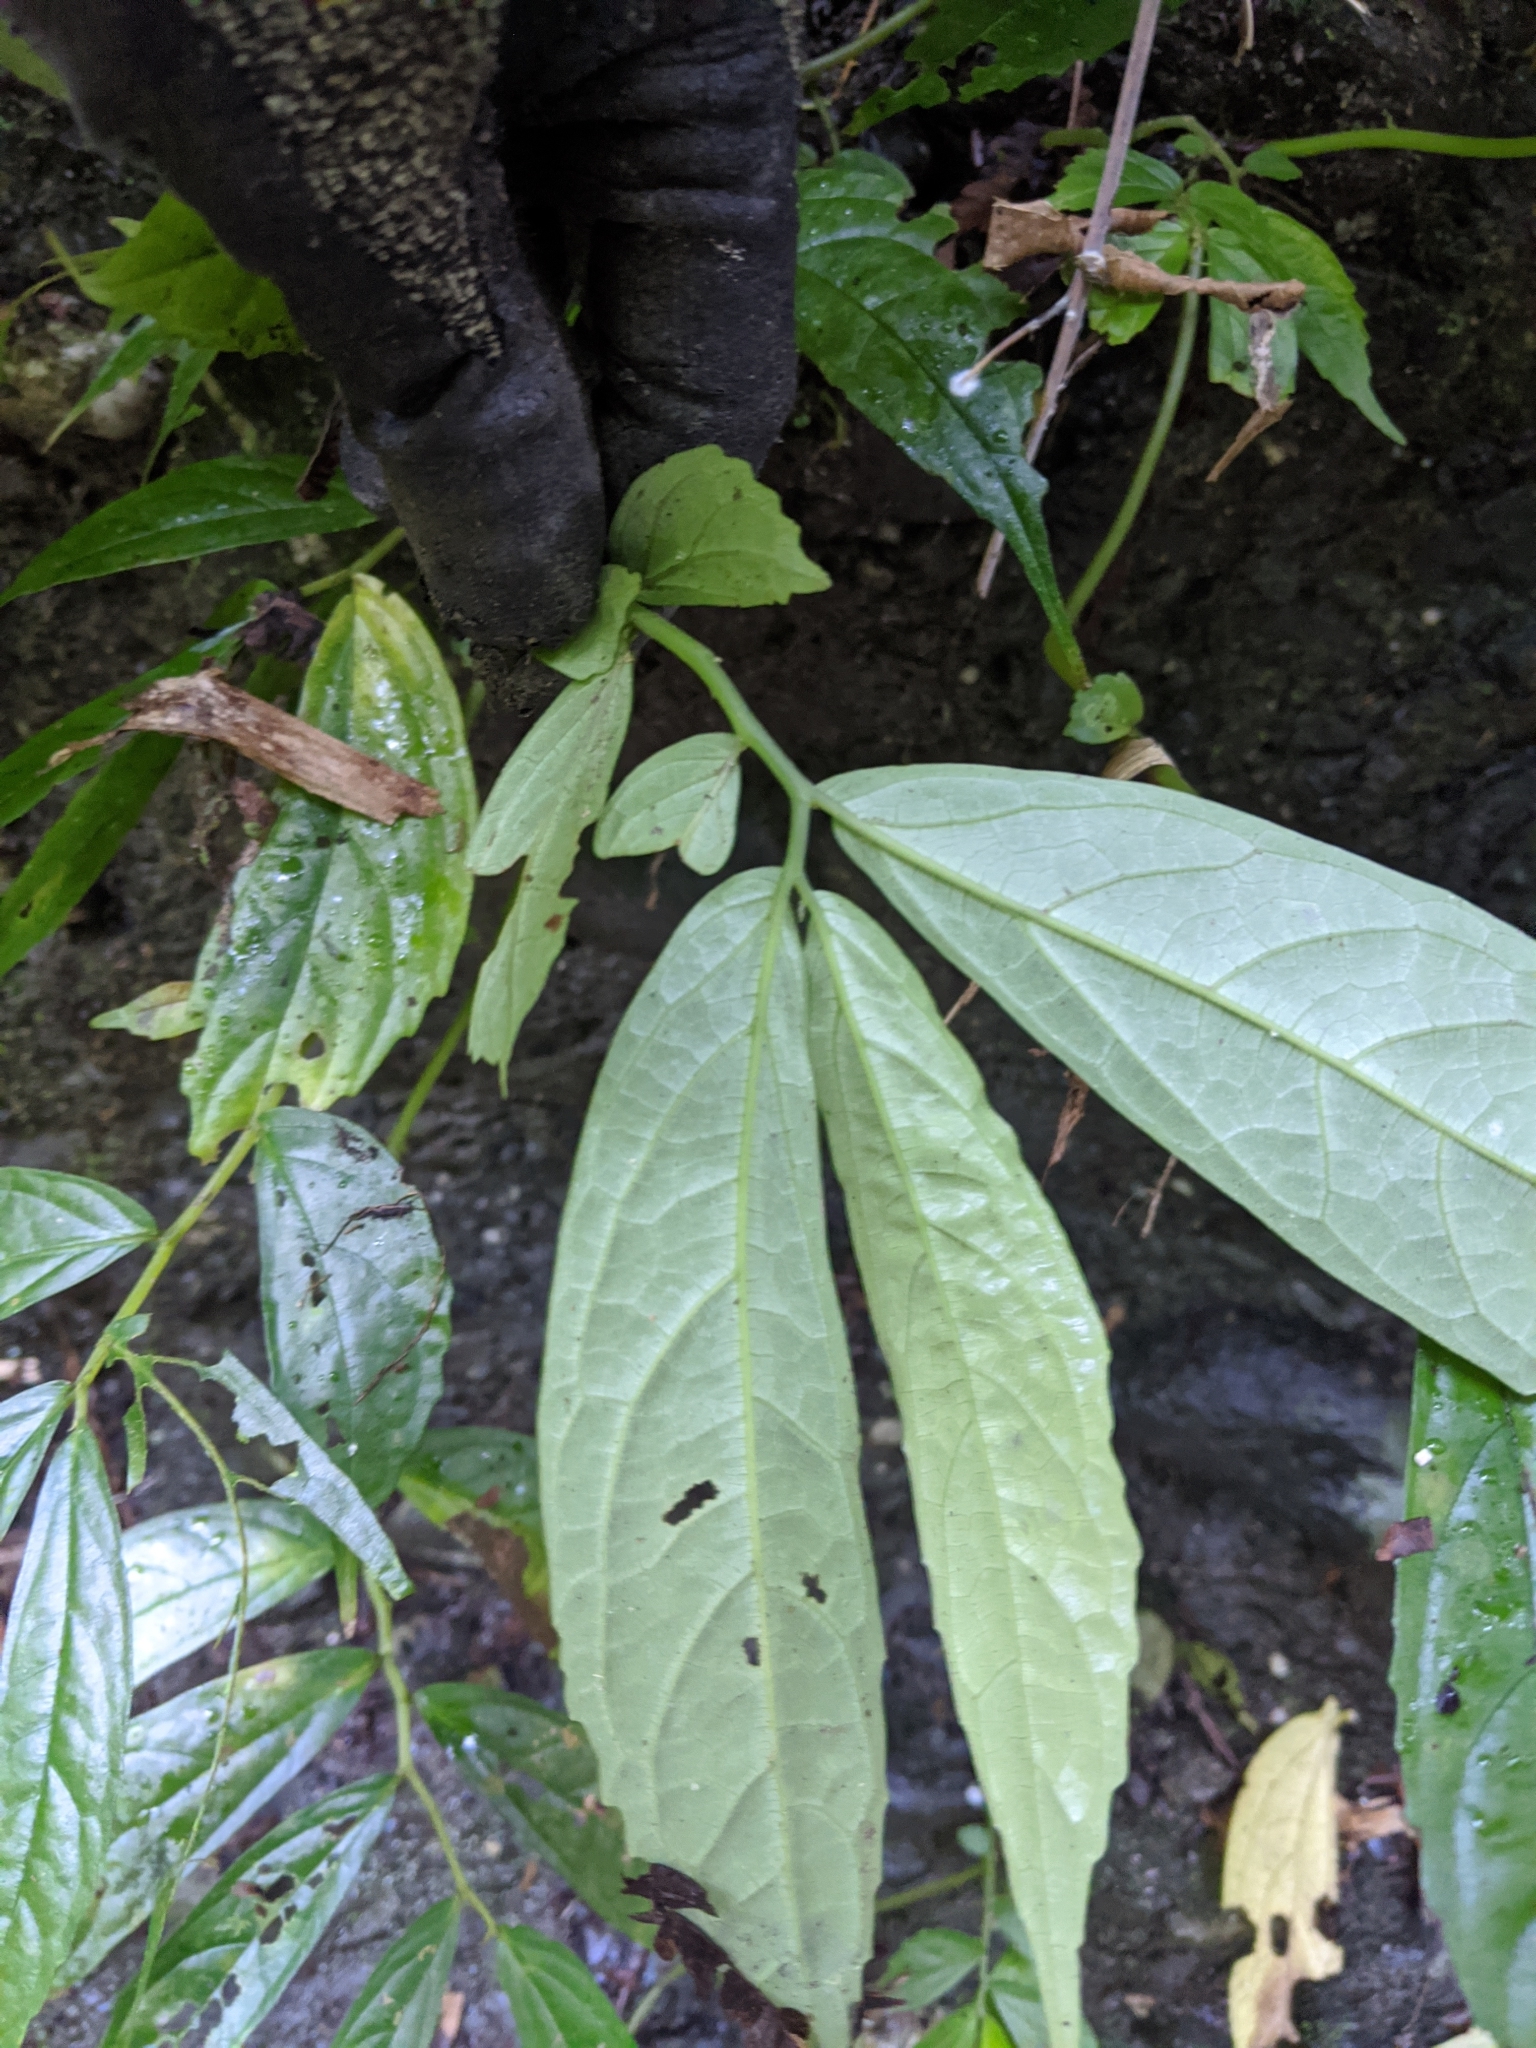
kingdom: Plantae
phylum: Tracheophyta
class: Magnoliopsida
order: Rosales
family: Urticaceae
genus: Elatostema
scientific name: Elatostema hirtellipedunculatum
